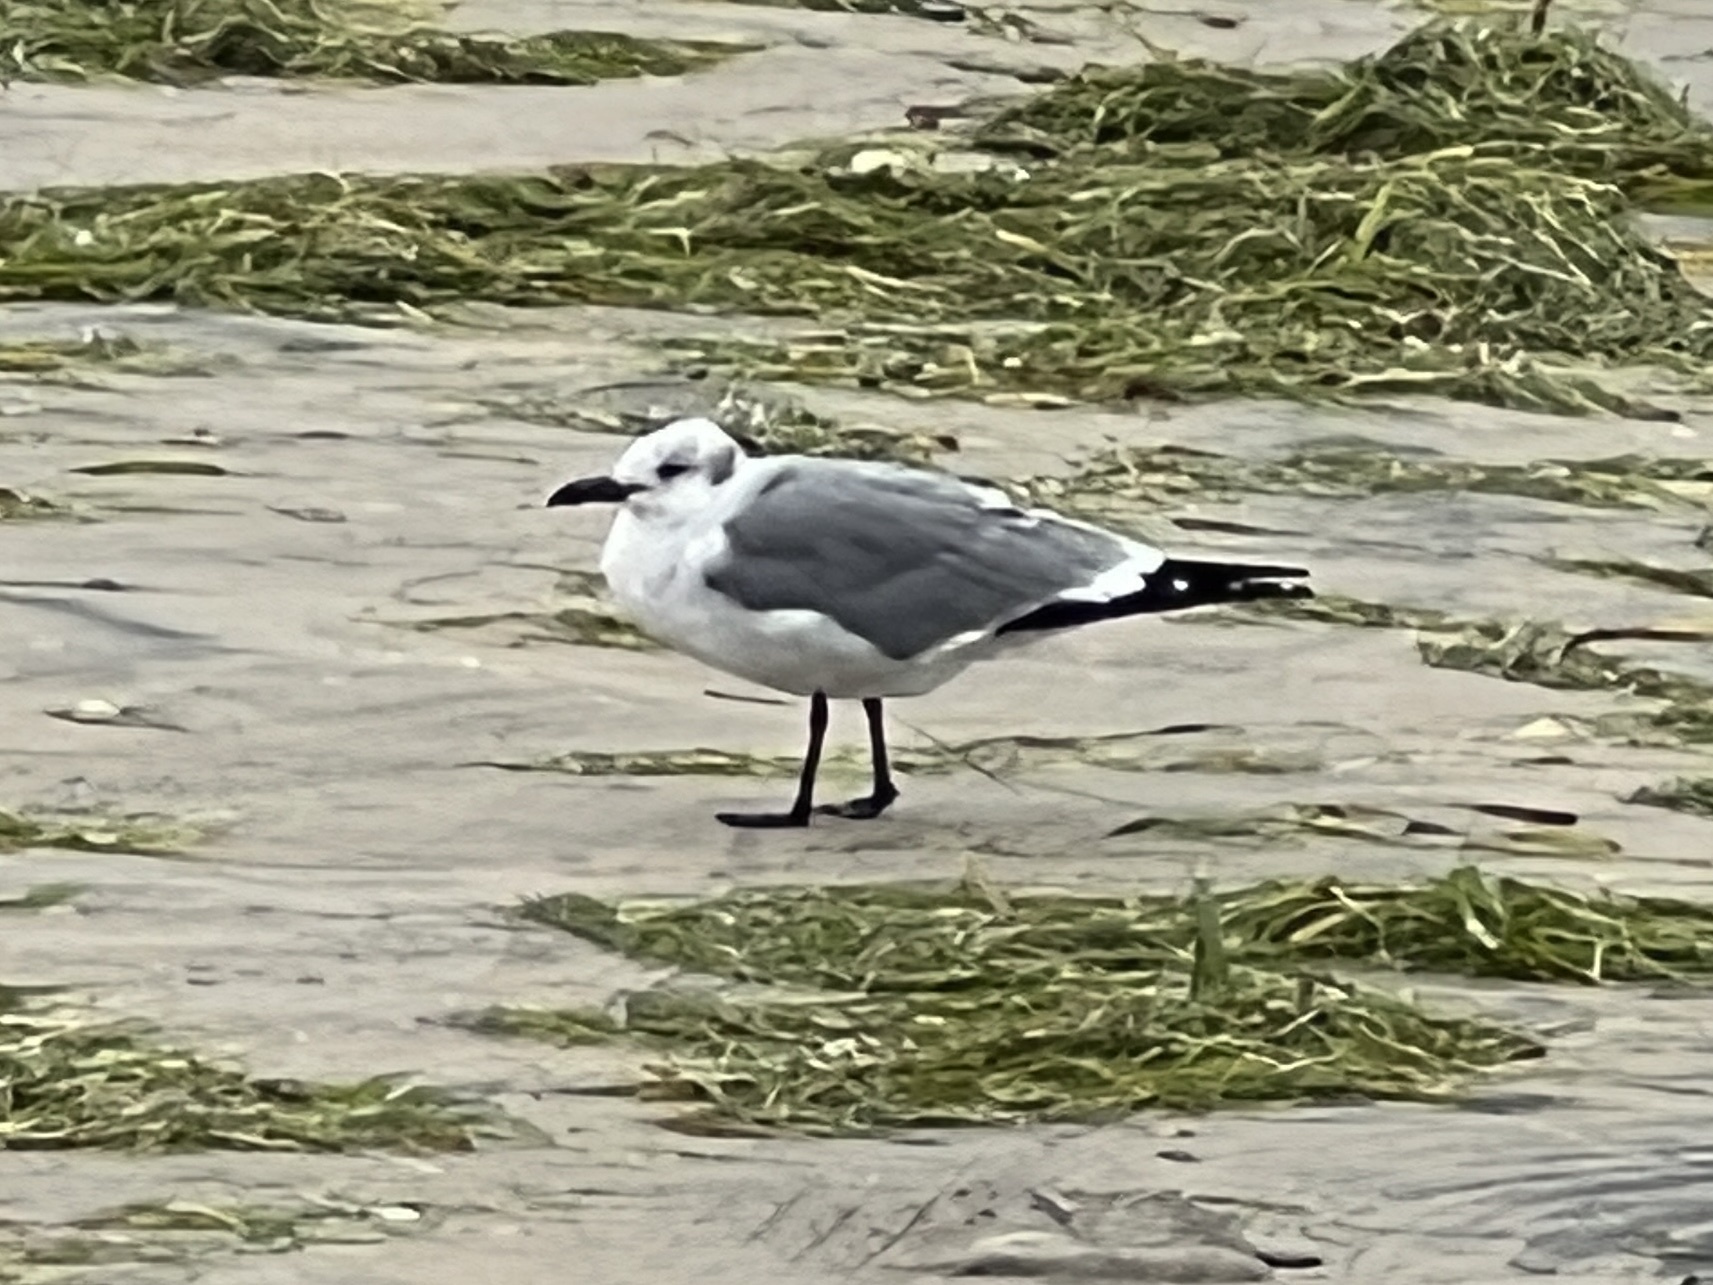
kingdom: Animalia
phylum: Chordata
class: Aves
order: Charadriiformes
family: Laridae
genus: Leucophaeus
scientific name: Leucophaeus atricilla
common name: Laughing gull
